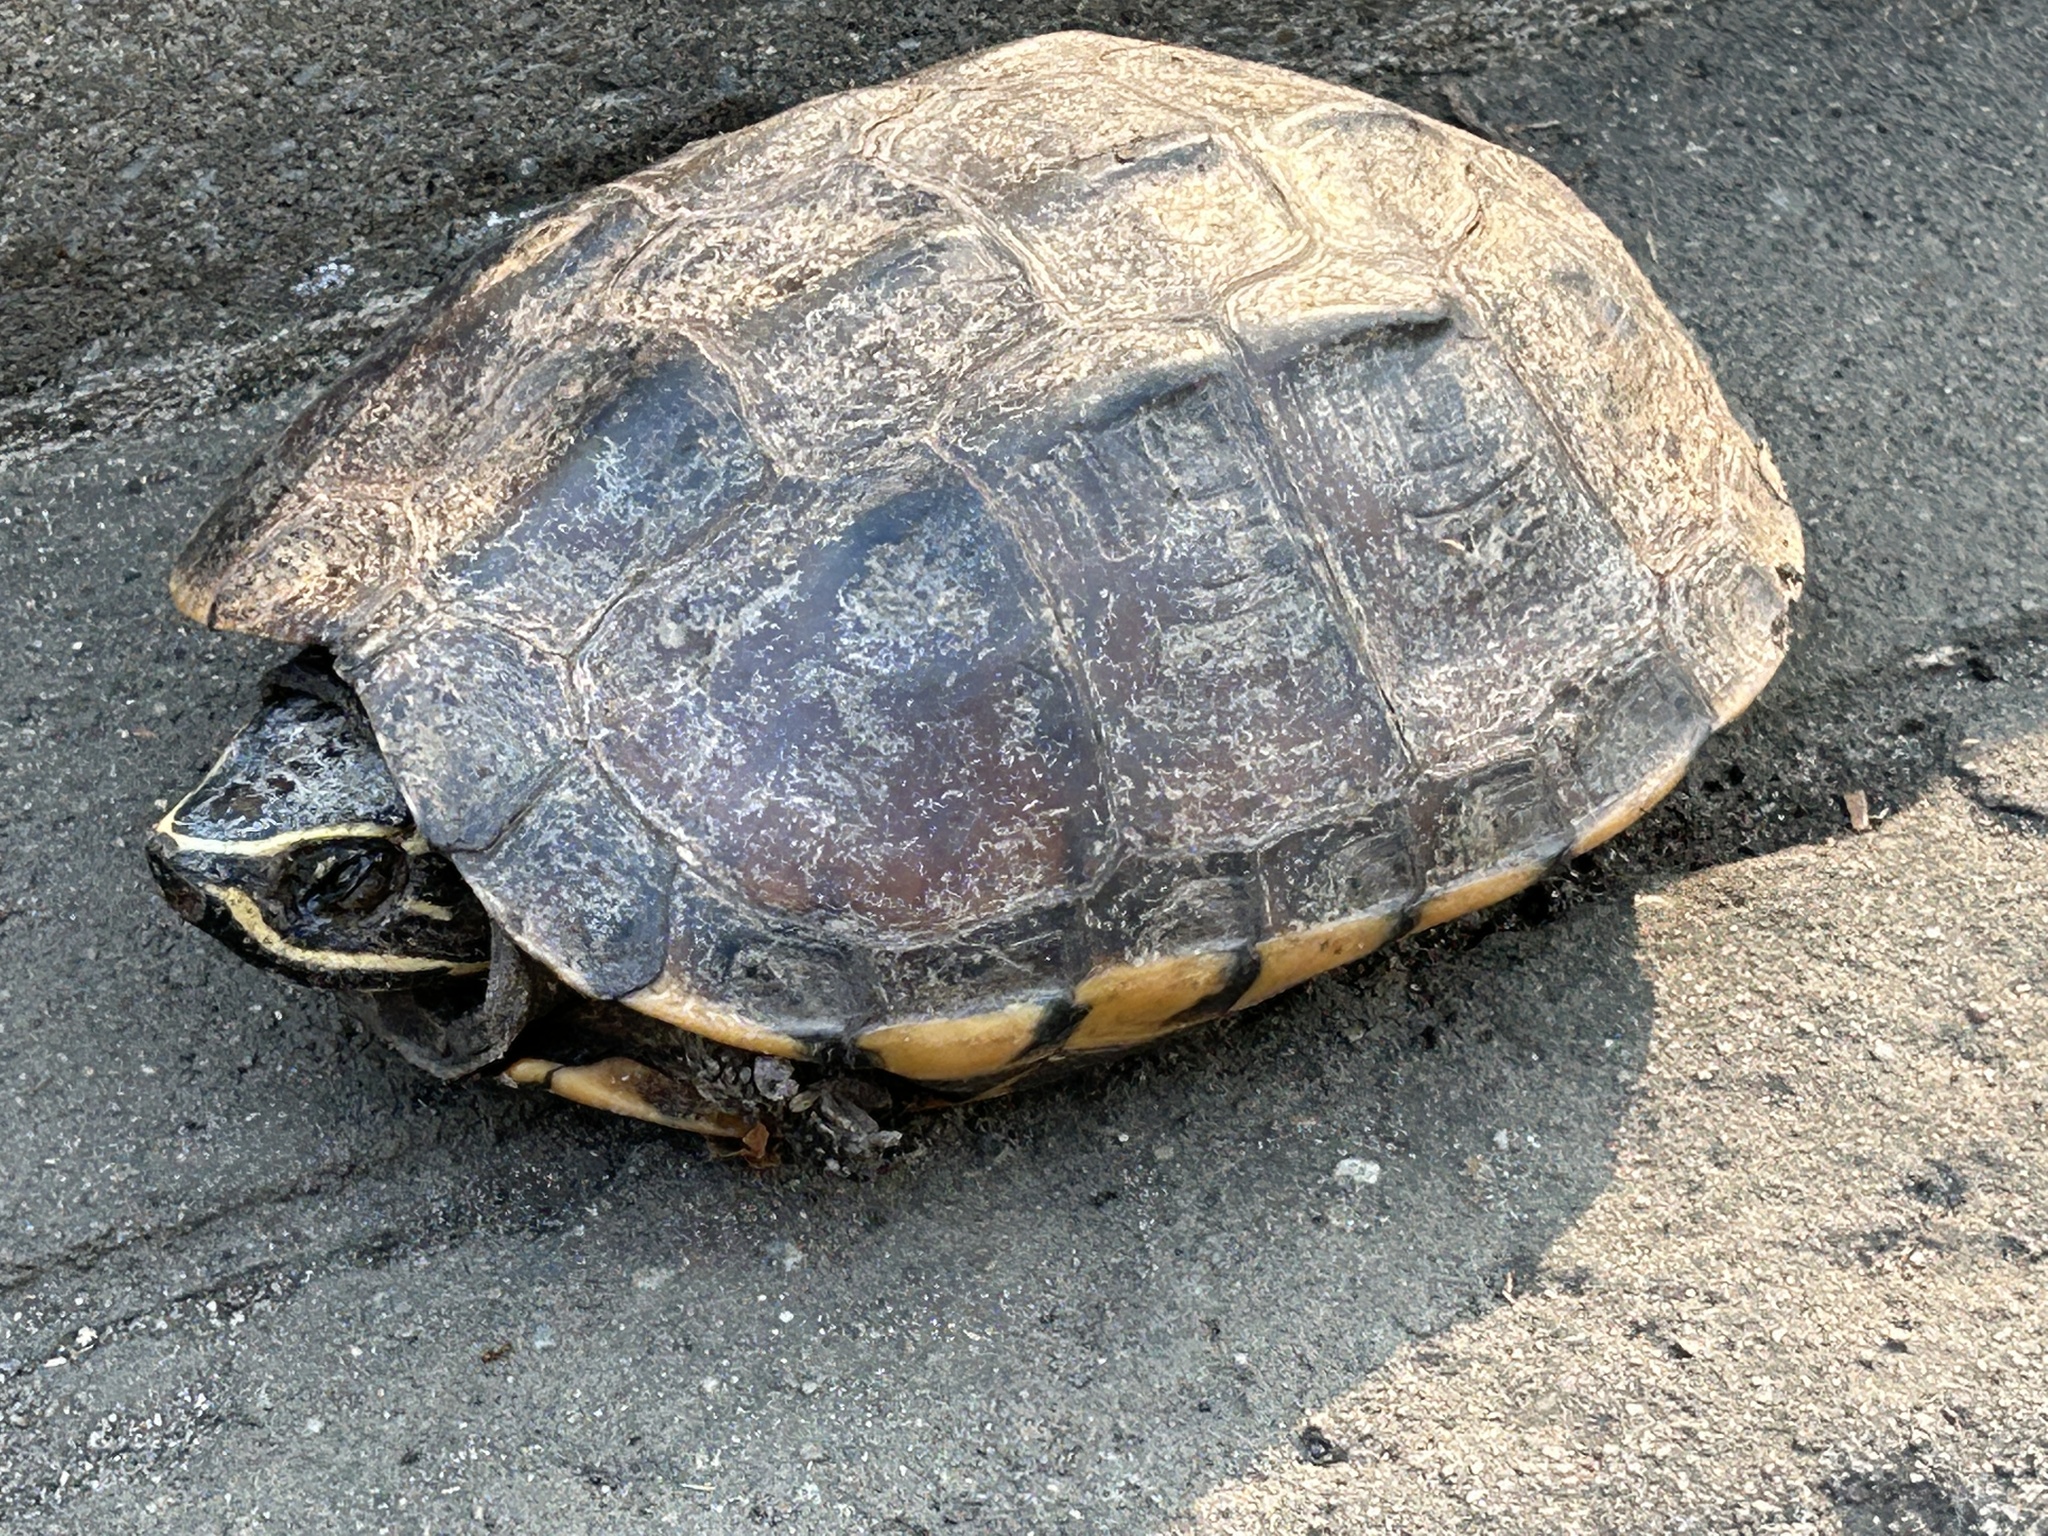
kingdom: Animalia
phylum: Chordata
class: Testudines
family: Geoemydidae
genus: Malayemys
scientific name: Malayemys macrocephala
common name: Malayan snail-eating turtle
